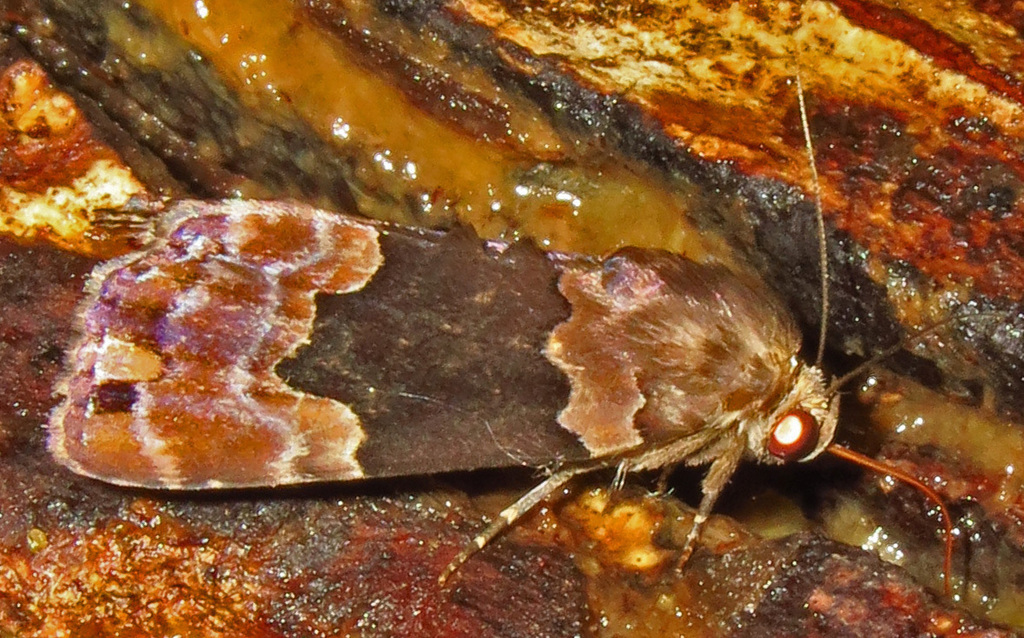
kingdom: Animalia
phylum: Arthropoda
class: Insecta
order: Lepidoptera
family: Erebidae
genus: Dinumma
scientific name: Dinumma deponens
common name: Purplish moth
